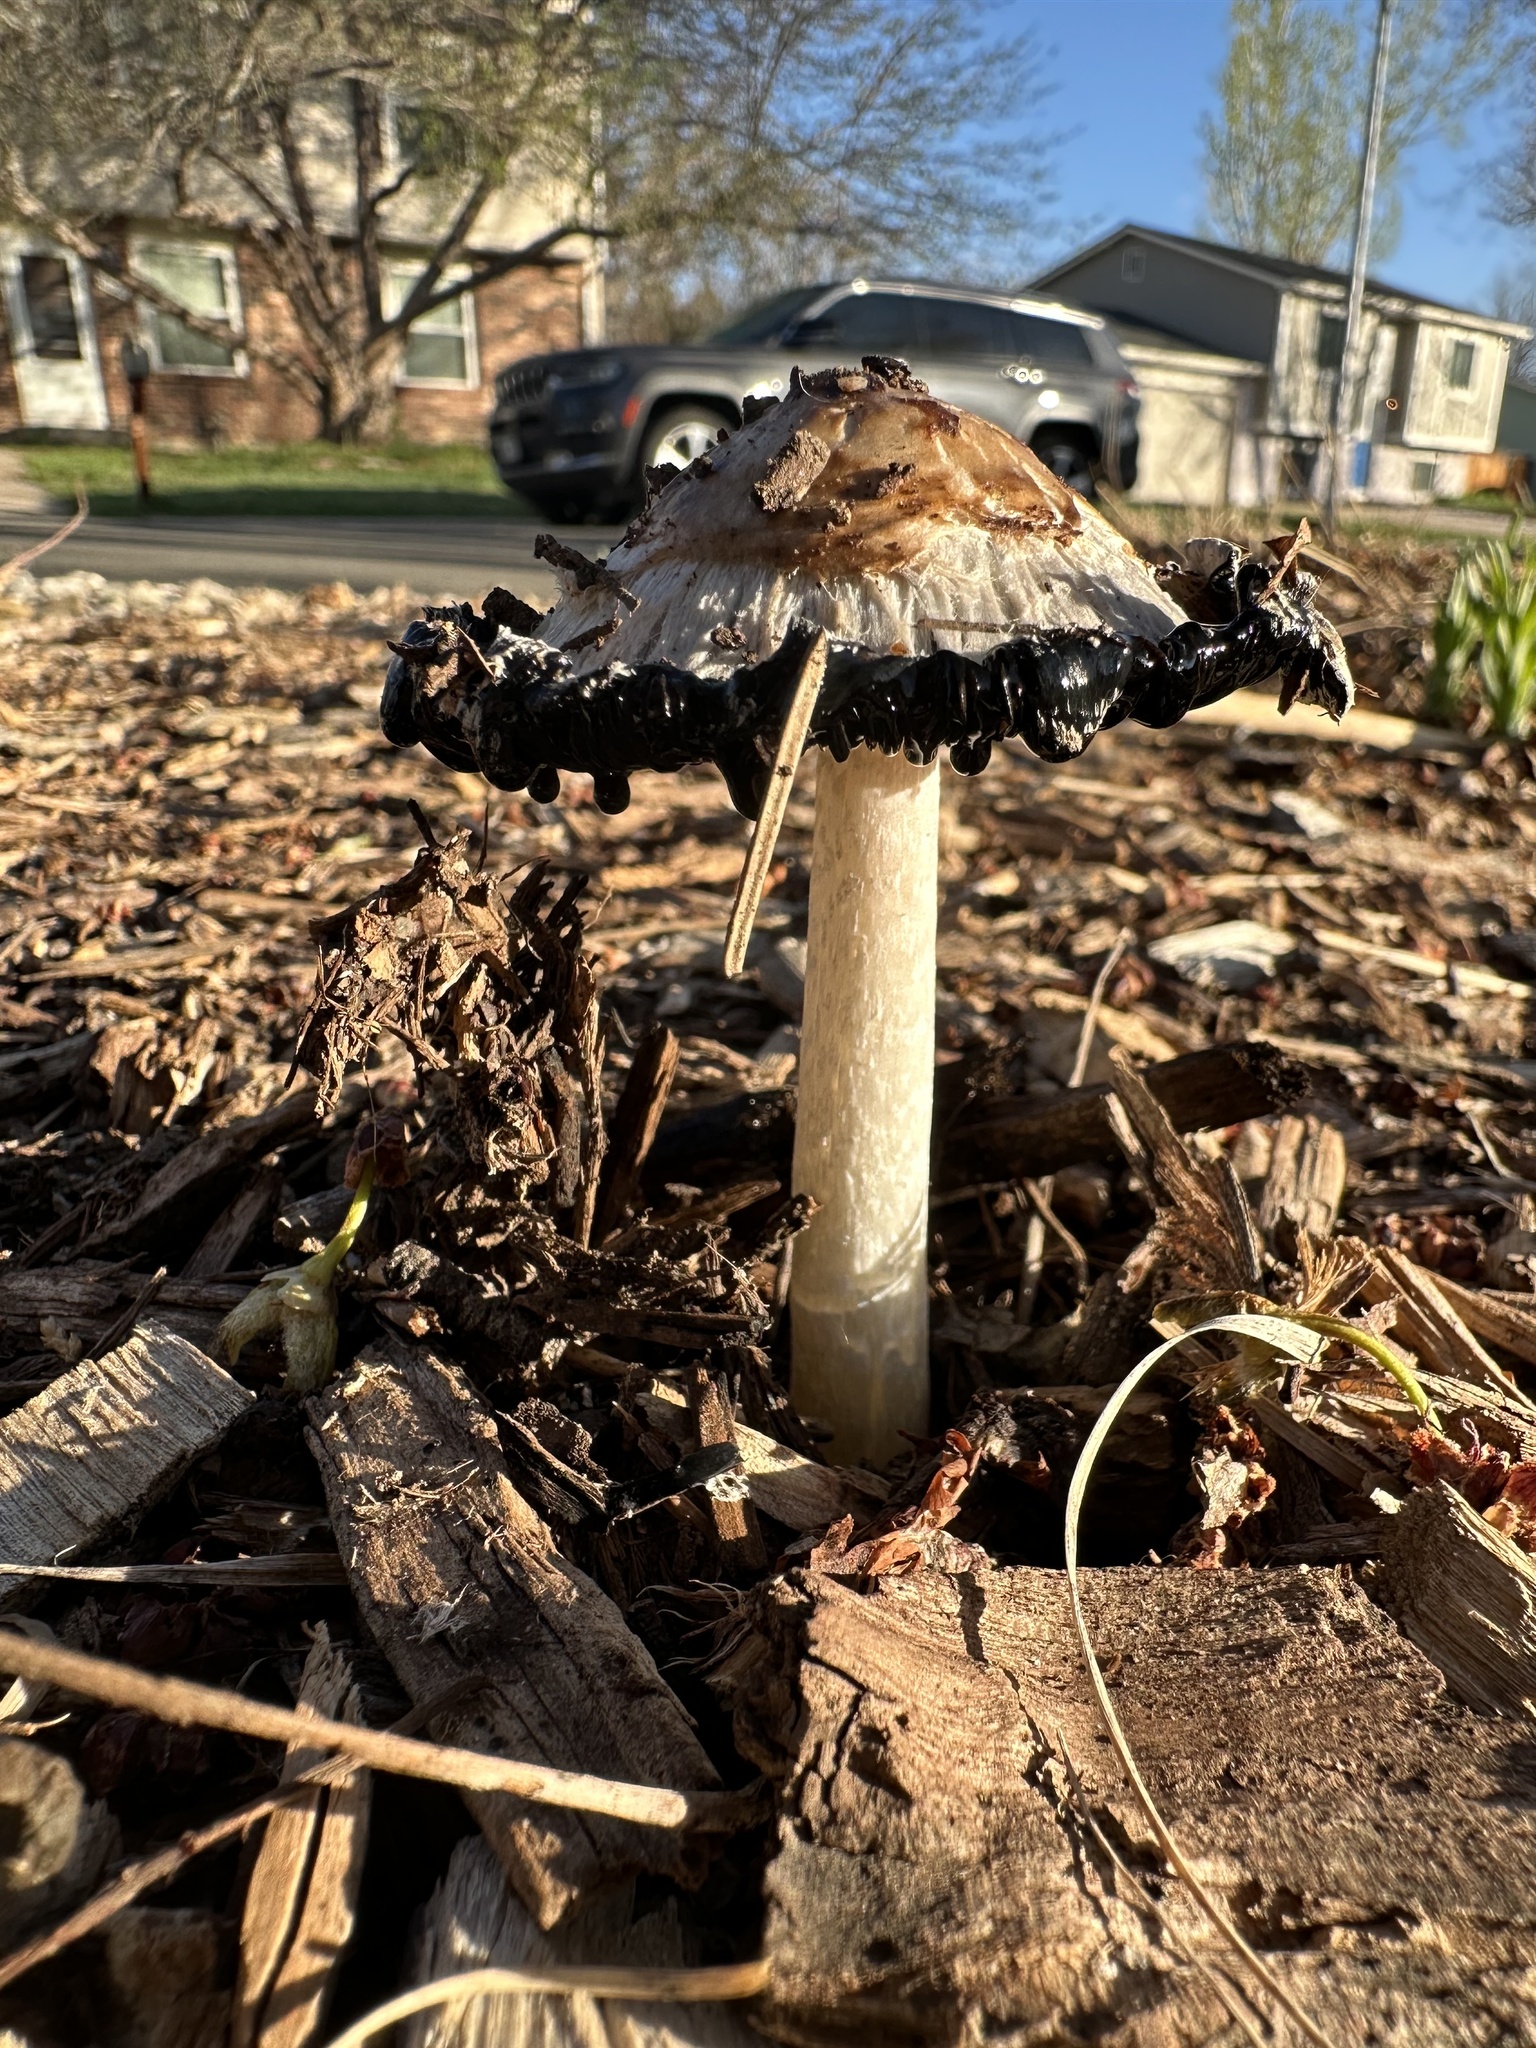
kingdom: Fungi
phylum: Basidiomycota
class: Agaricomycetes
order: Agaricales
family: Agaricaceae
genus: Coprinus
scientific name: Coprinus comatus
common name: Lawyer's wig
